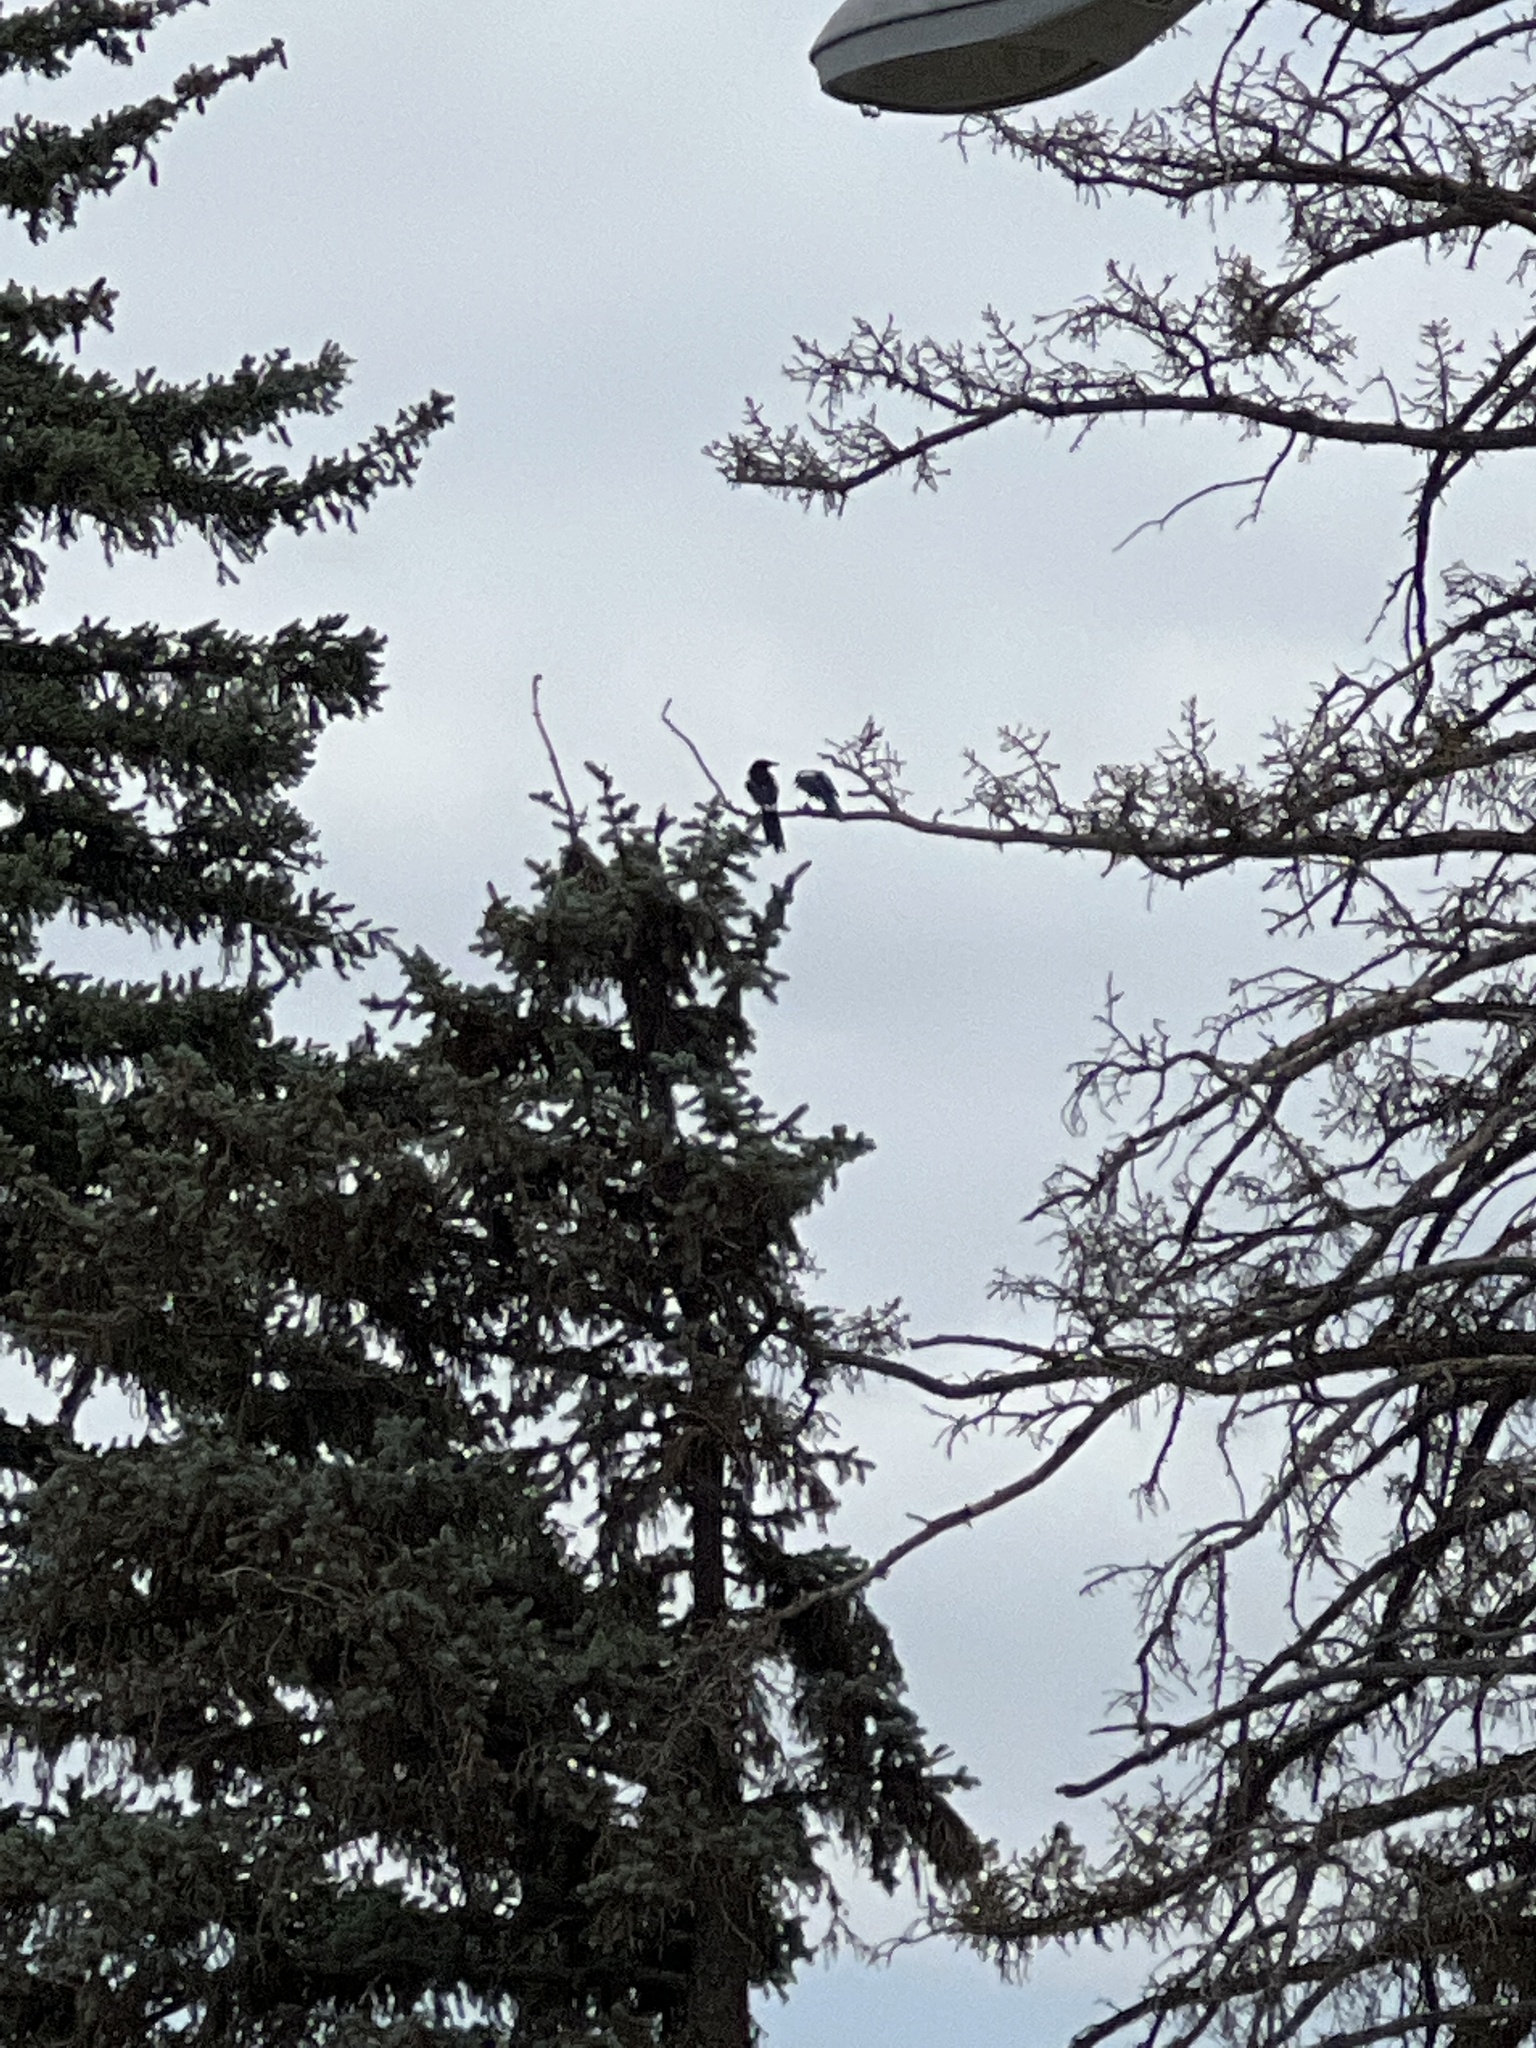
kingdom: Animalia
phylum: Chordata
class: Aves
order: Passeriformes
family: Corvidae
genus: Pica
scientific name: Pica hudsonia
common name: Black-billed magpie
